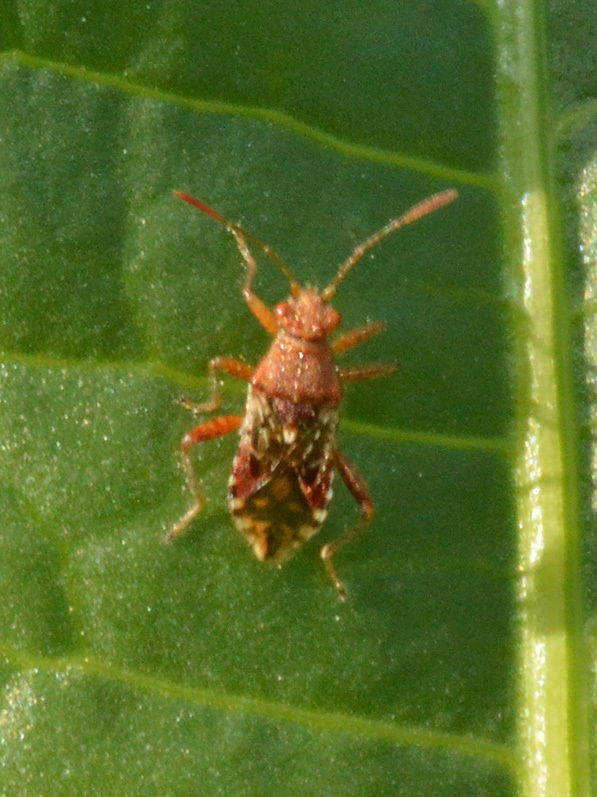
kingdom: Animalia
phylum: Arthropoda
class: Insecta
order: Hemiptera
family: Rhopalidae
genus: Rhopalus
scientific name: Rhopalus subrufus
